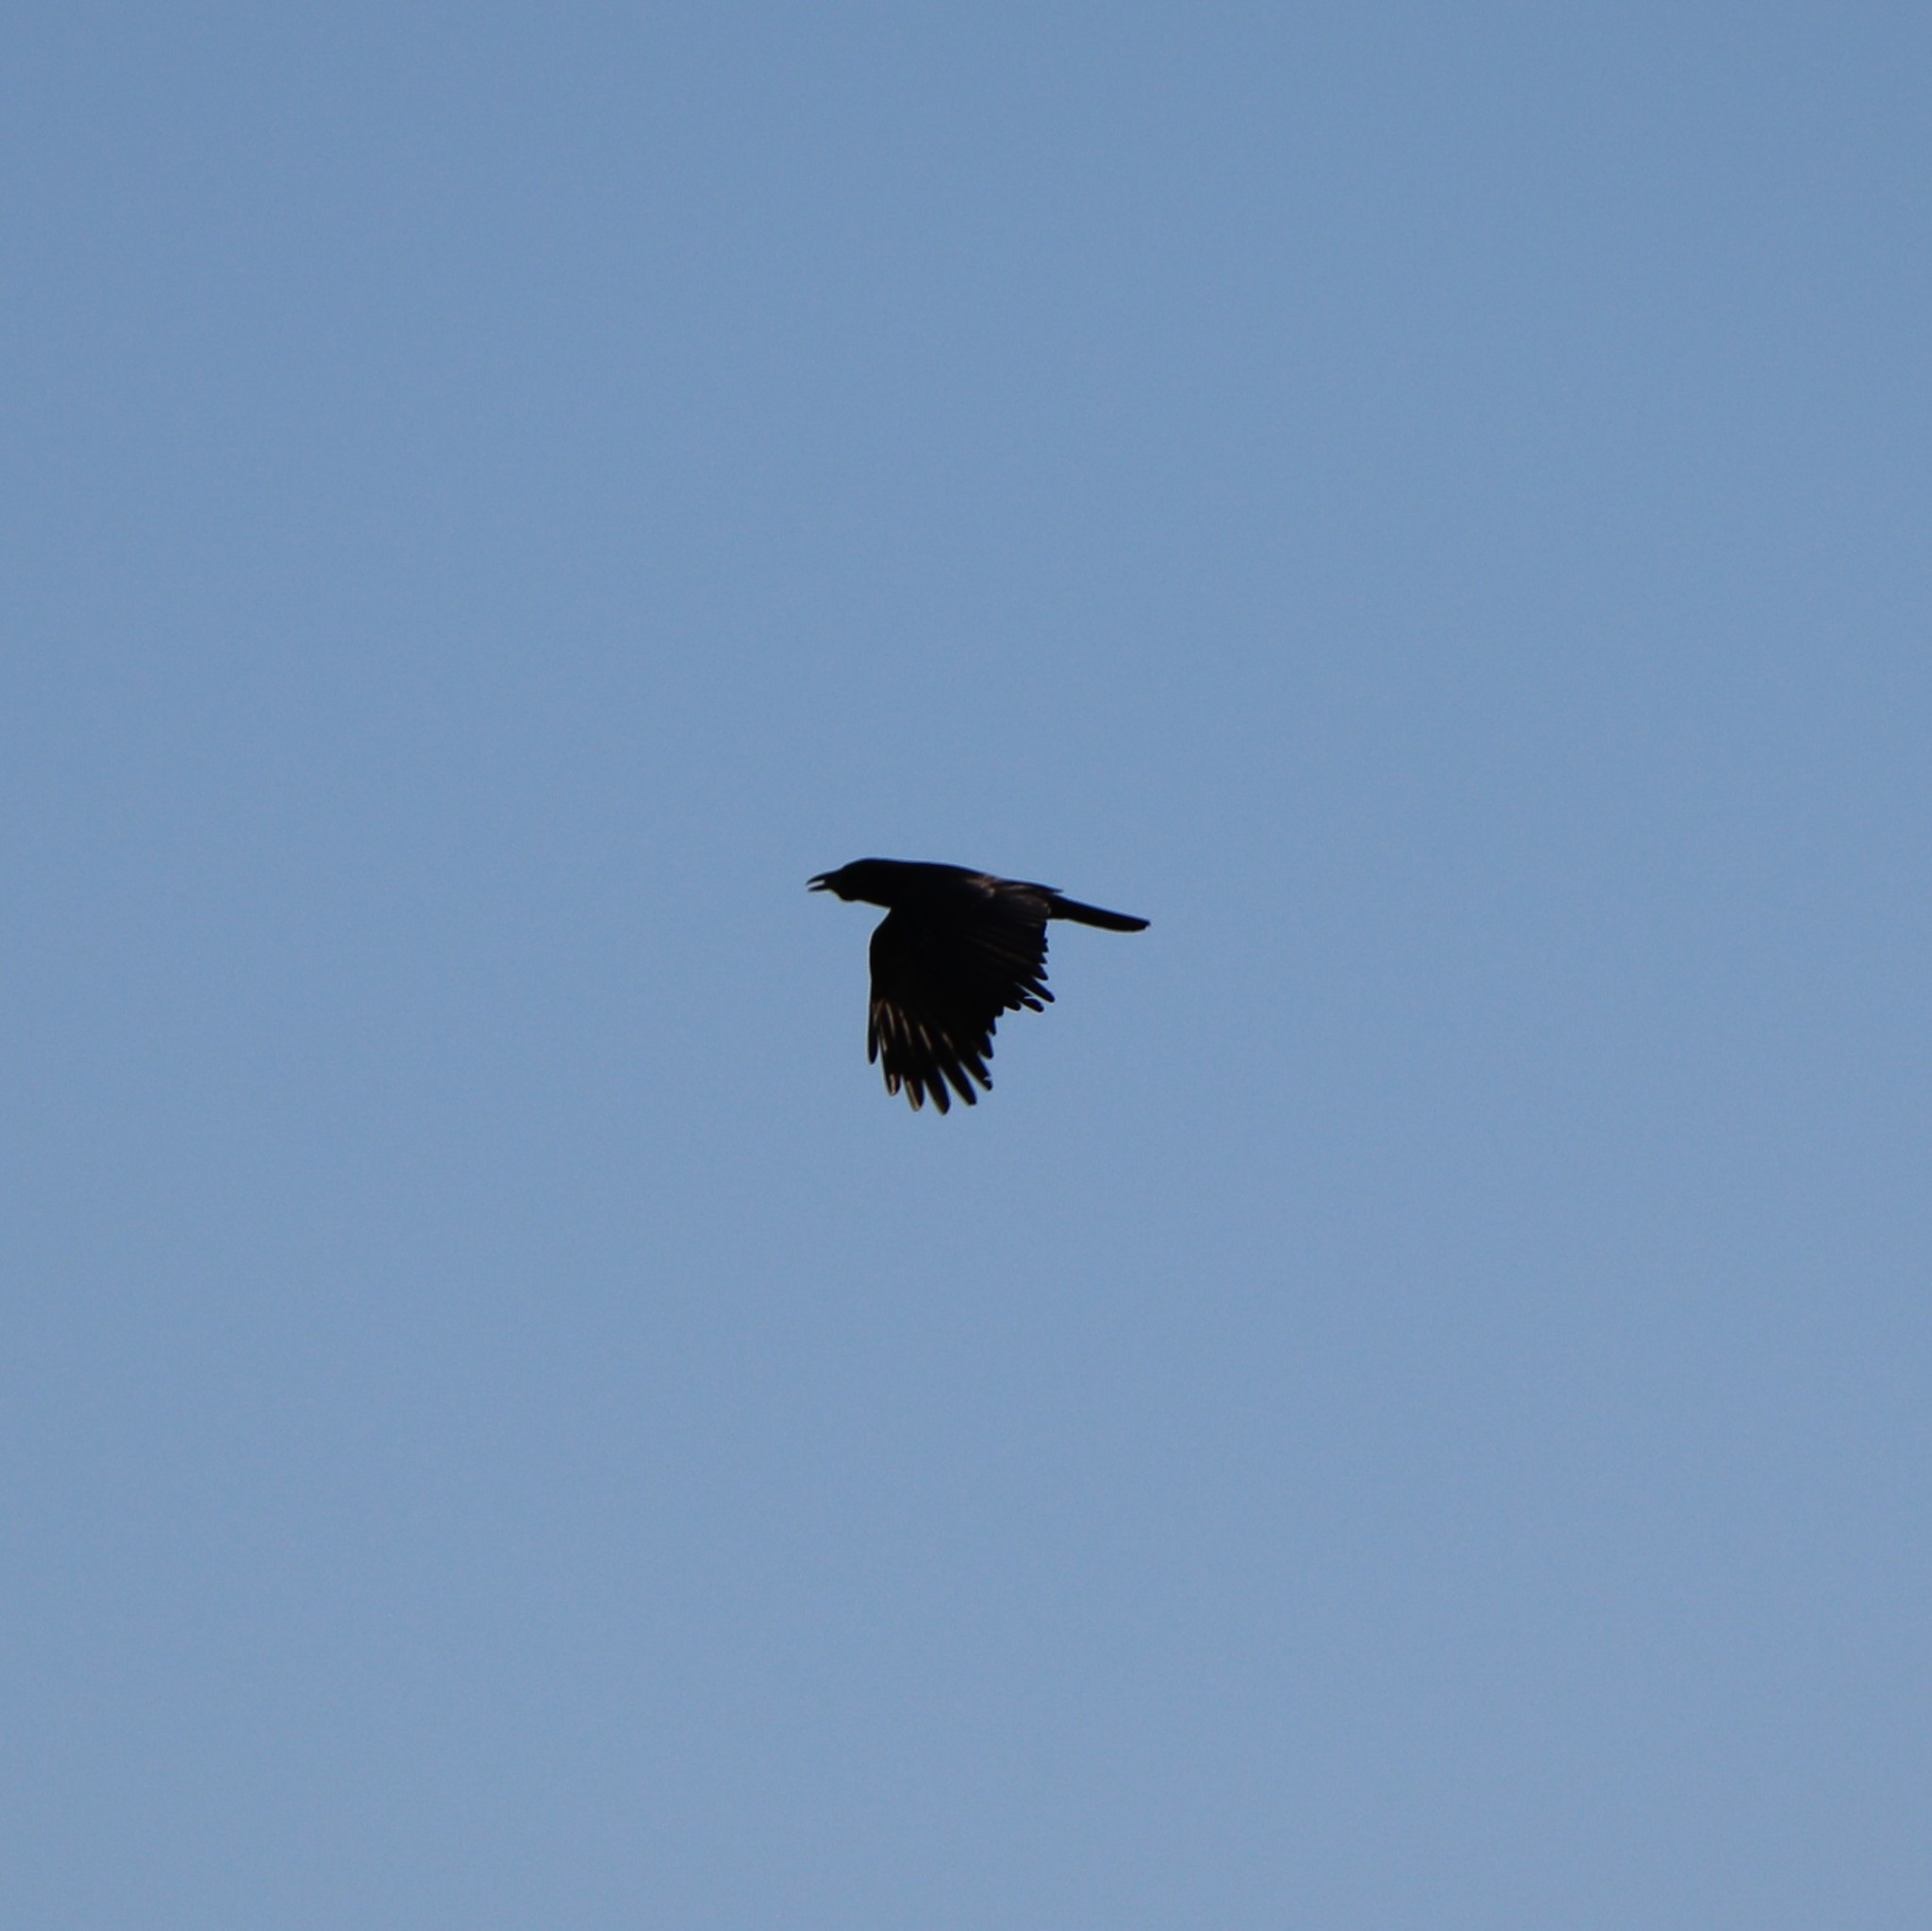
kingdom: Animalia
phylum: Chordata
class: Aves
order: Passeriformes
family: Corvidae
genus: Corvus
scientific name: Corvus brachyrhynchos
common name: American crow
